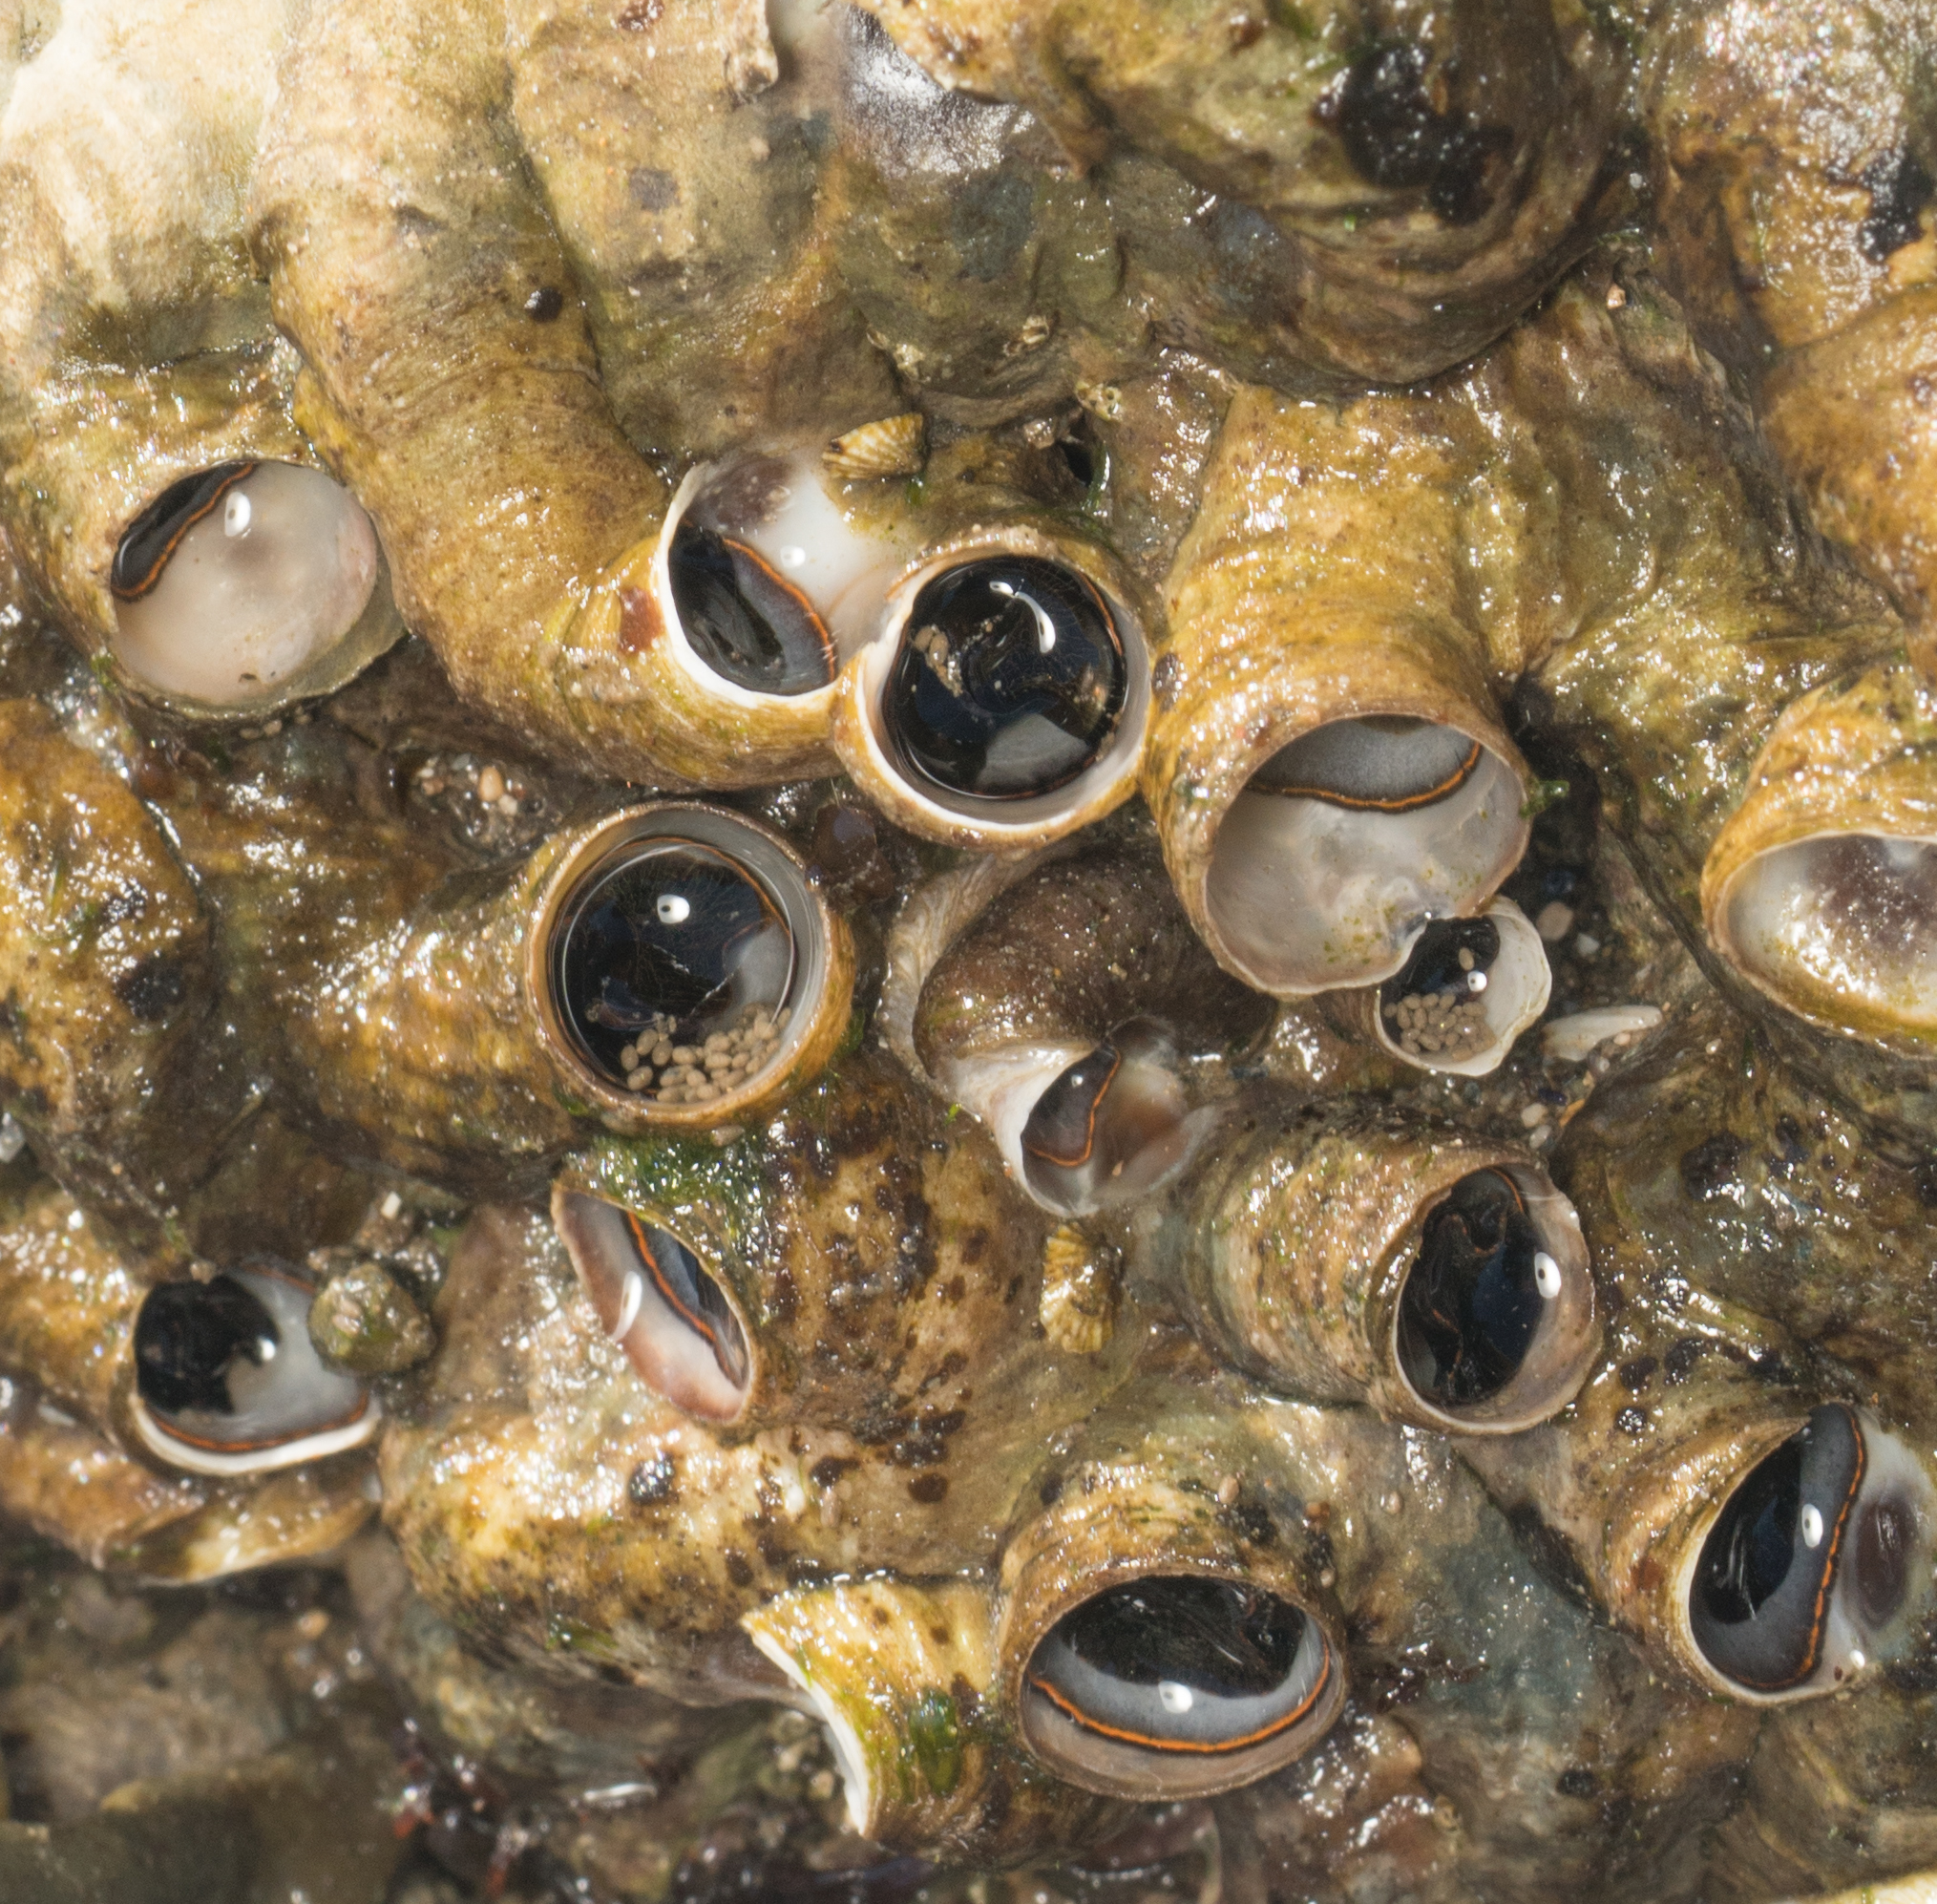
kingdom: Animalia
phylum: Mollusca
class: Gastropoda
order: Littorinimorpha
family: Vermetidae
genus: Thylacodes
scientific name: Thylacodes squamigerus
